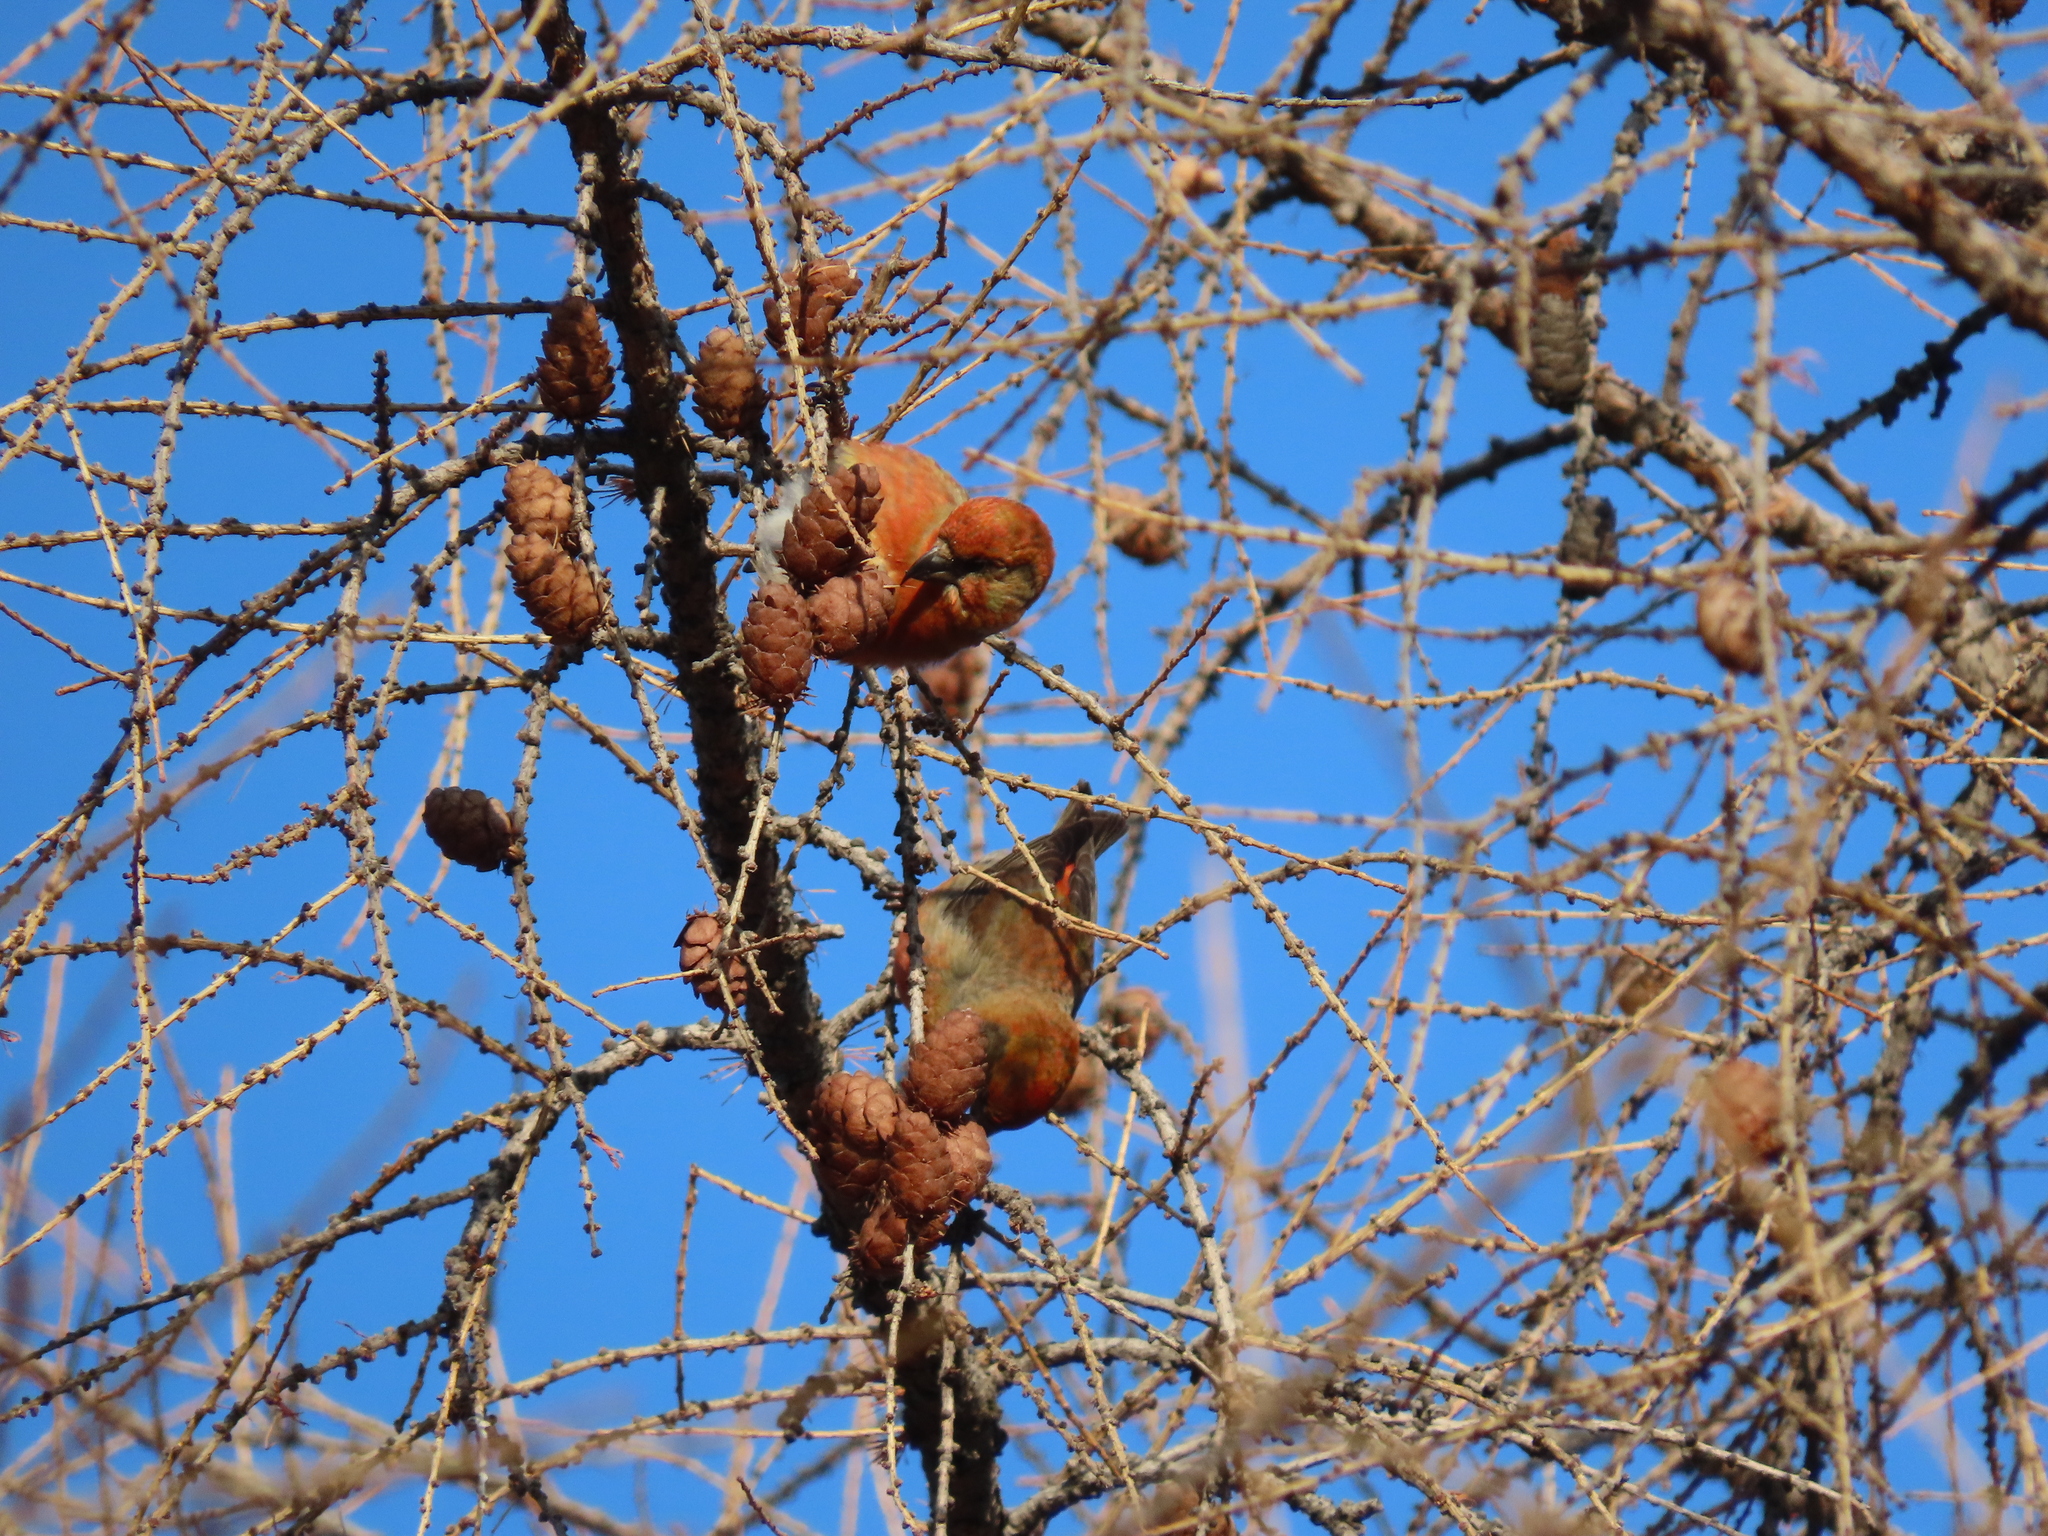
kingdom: Animalia
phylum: Chordata
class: Aves
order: Passeriformes
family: Fringillidae
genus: Loxia
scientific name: Loxia curvirostra
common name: Red crossbill
